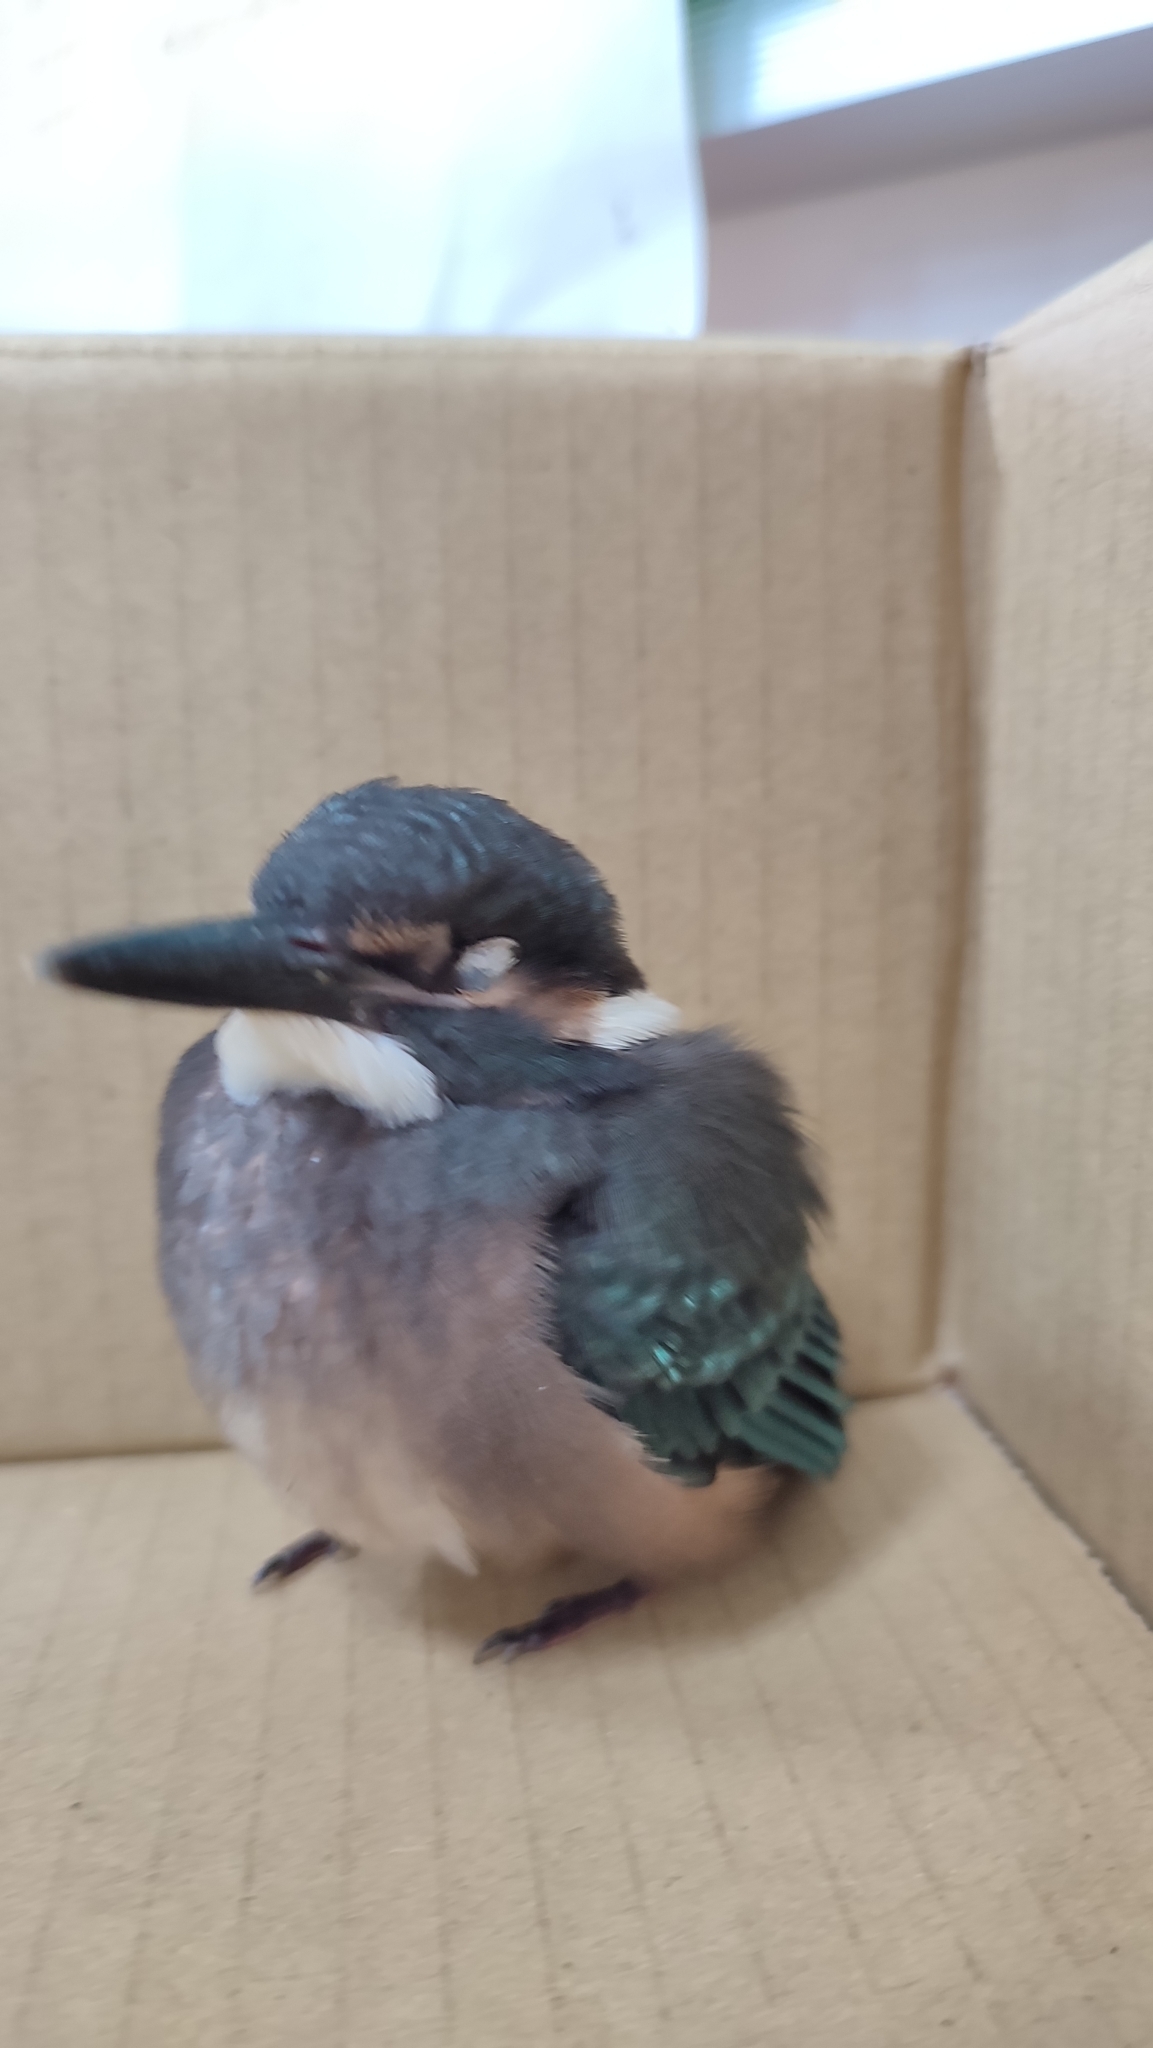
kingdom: Animalia
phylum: Chordata
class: Aves
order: Coraciiformes
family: Alcedinidae
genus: Alcedo
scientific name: Alcedo atthis
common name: Common kingfisher
